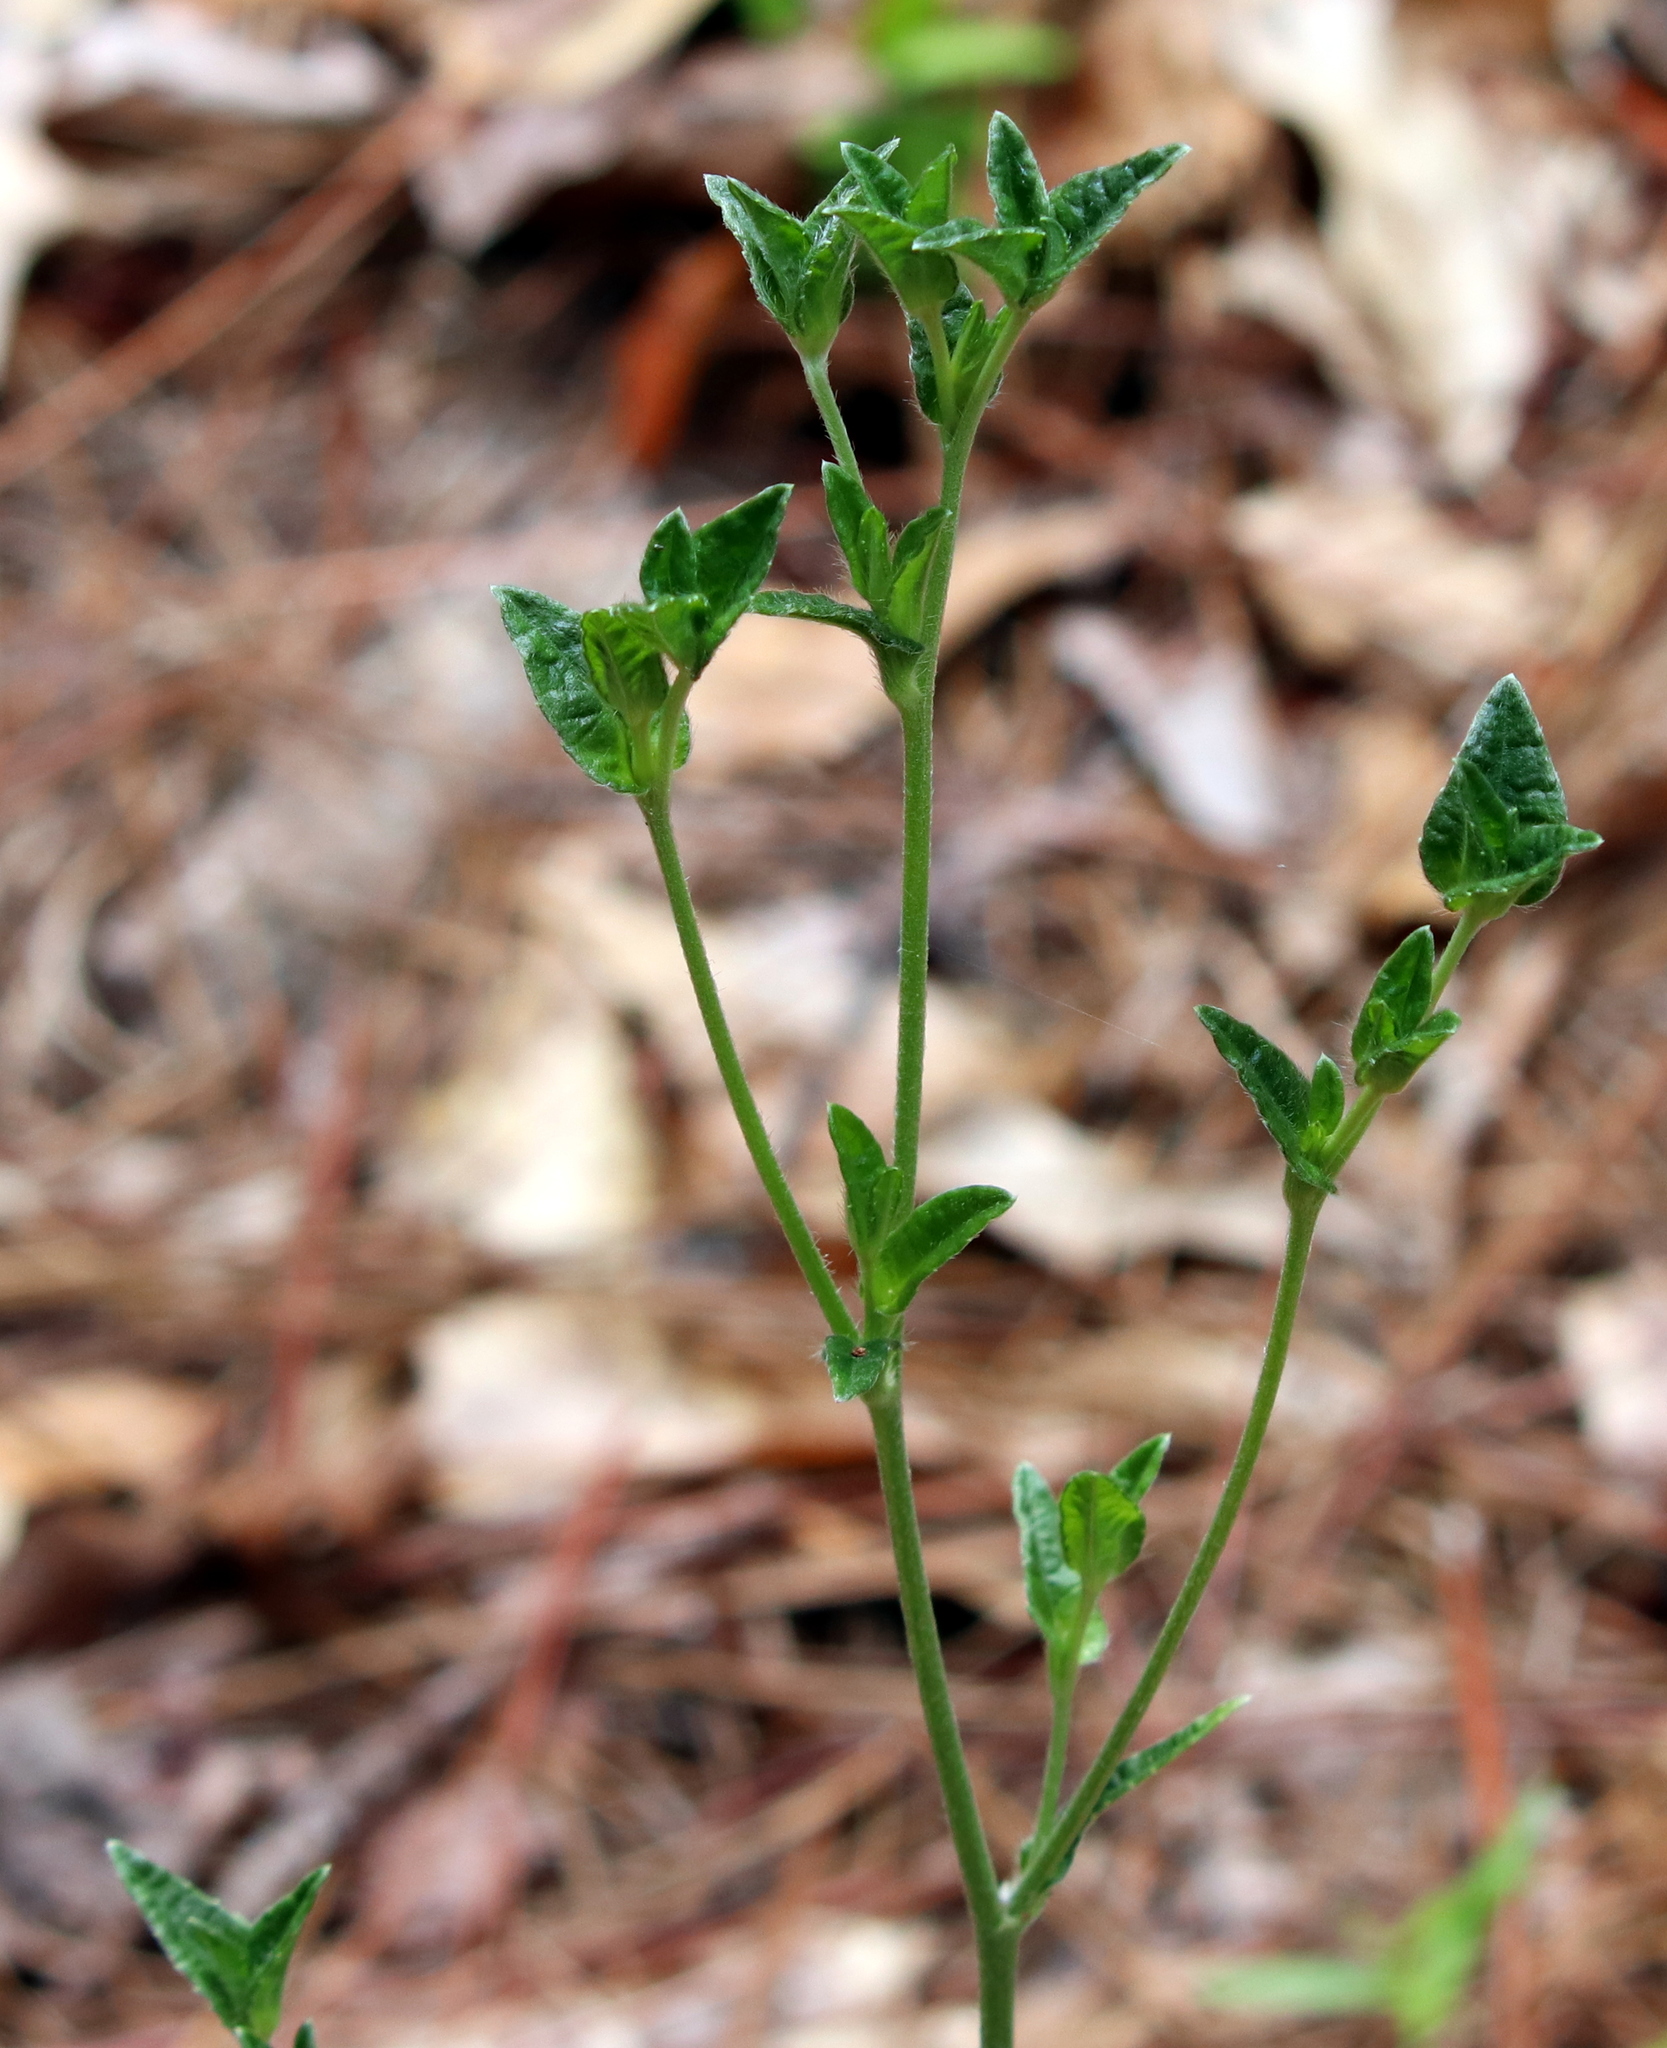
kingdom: Plantae
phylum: Tracheophyta
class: Magnoliopsida
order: Asterales
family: Asteraceae
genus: Elephantopus
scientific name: Elephantopus nudatus
